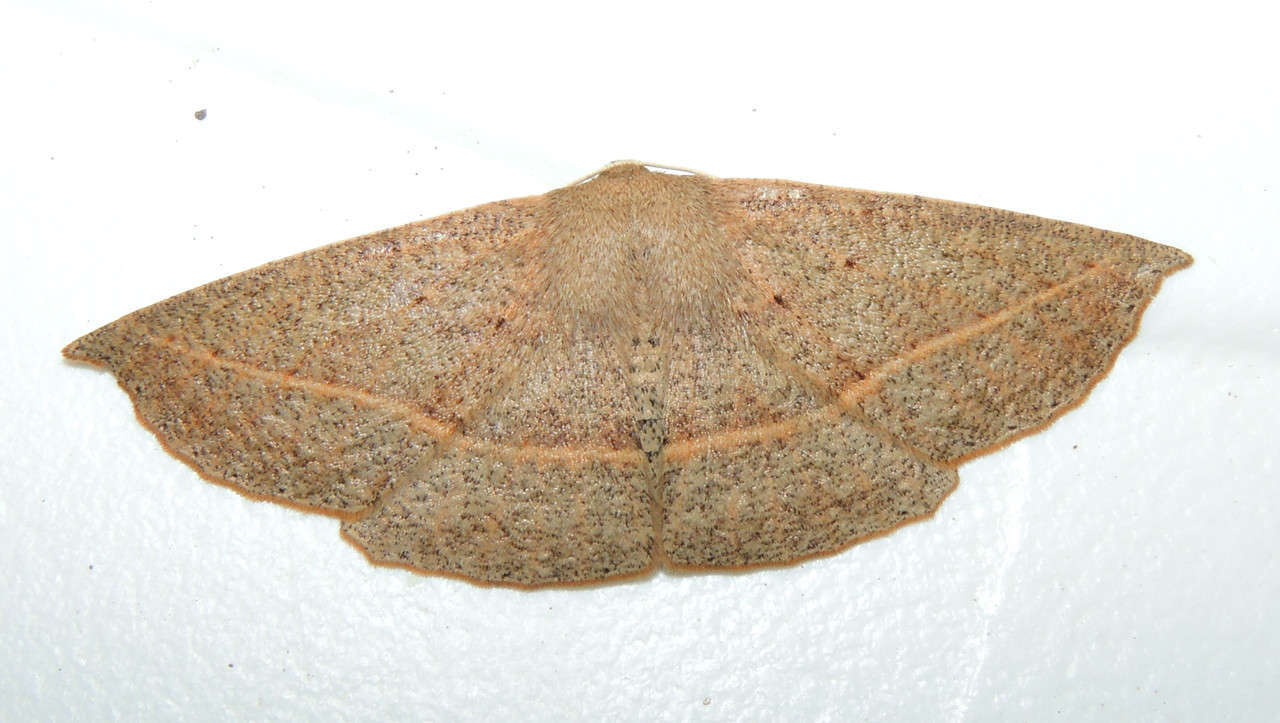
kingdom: Animalia
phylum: Arthropoda
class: Insecta
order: Lepidoptera
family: Geometridae
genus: Idiodes
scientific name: Idiodes apicata
